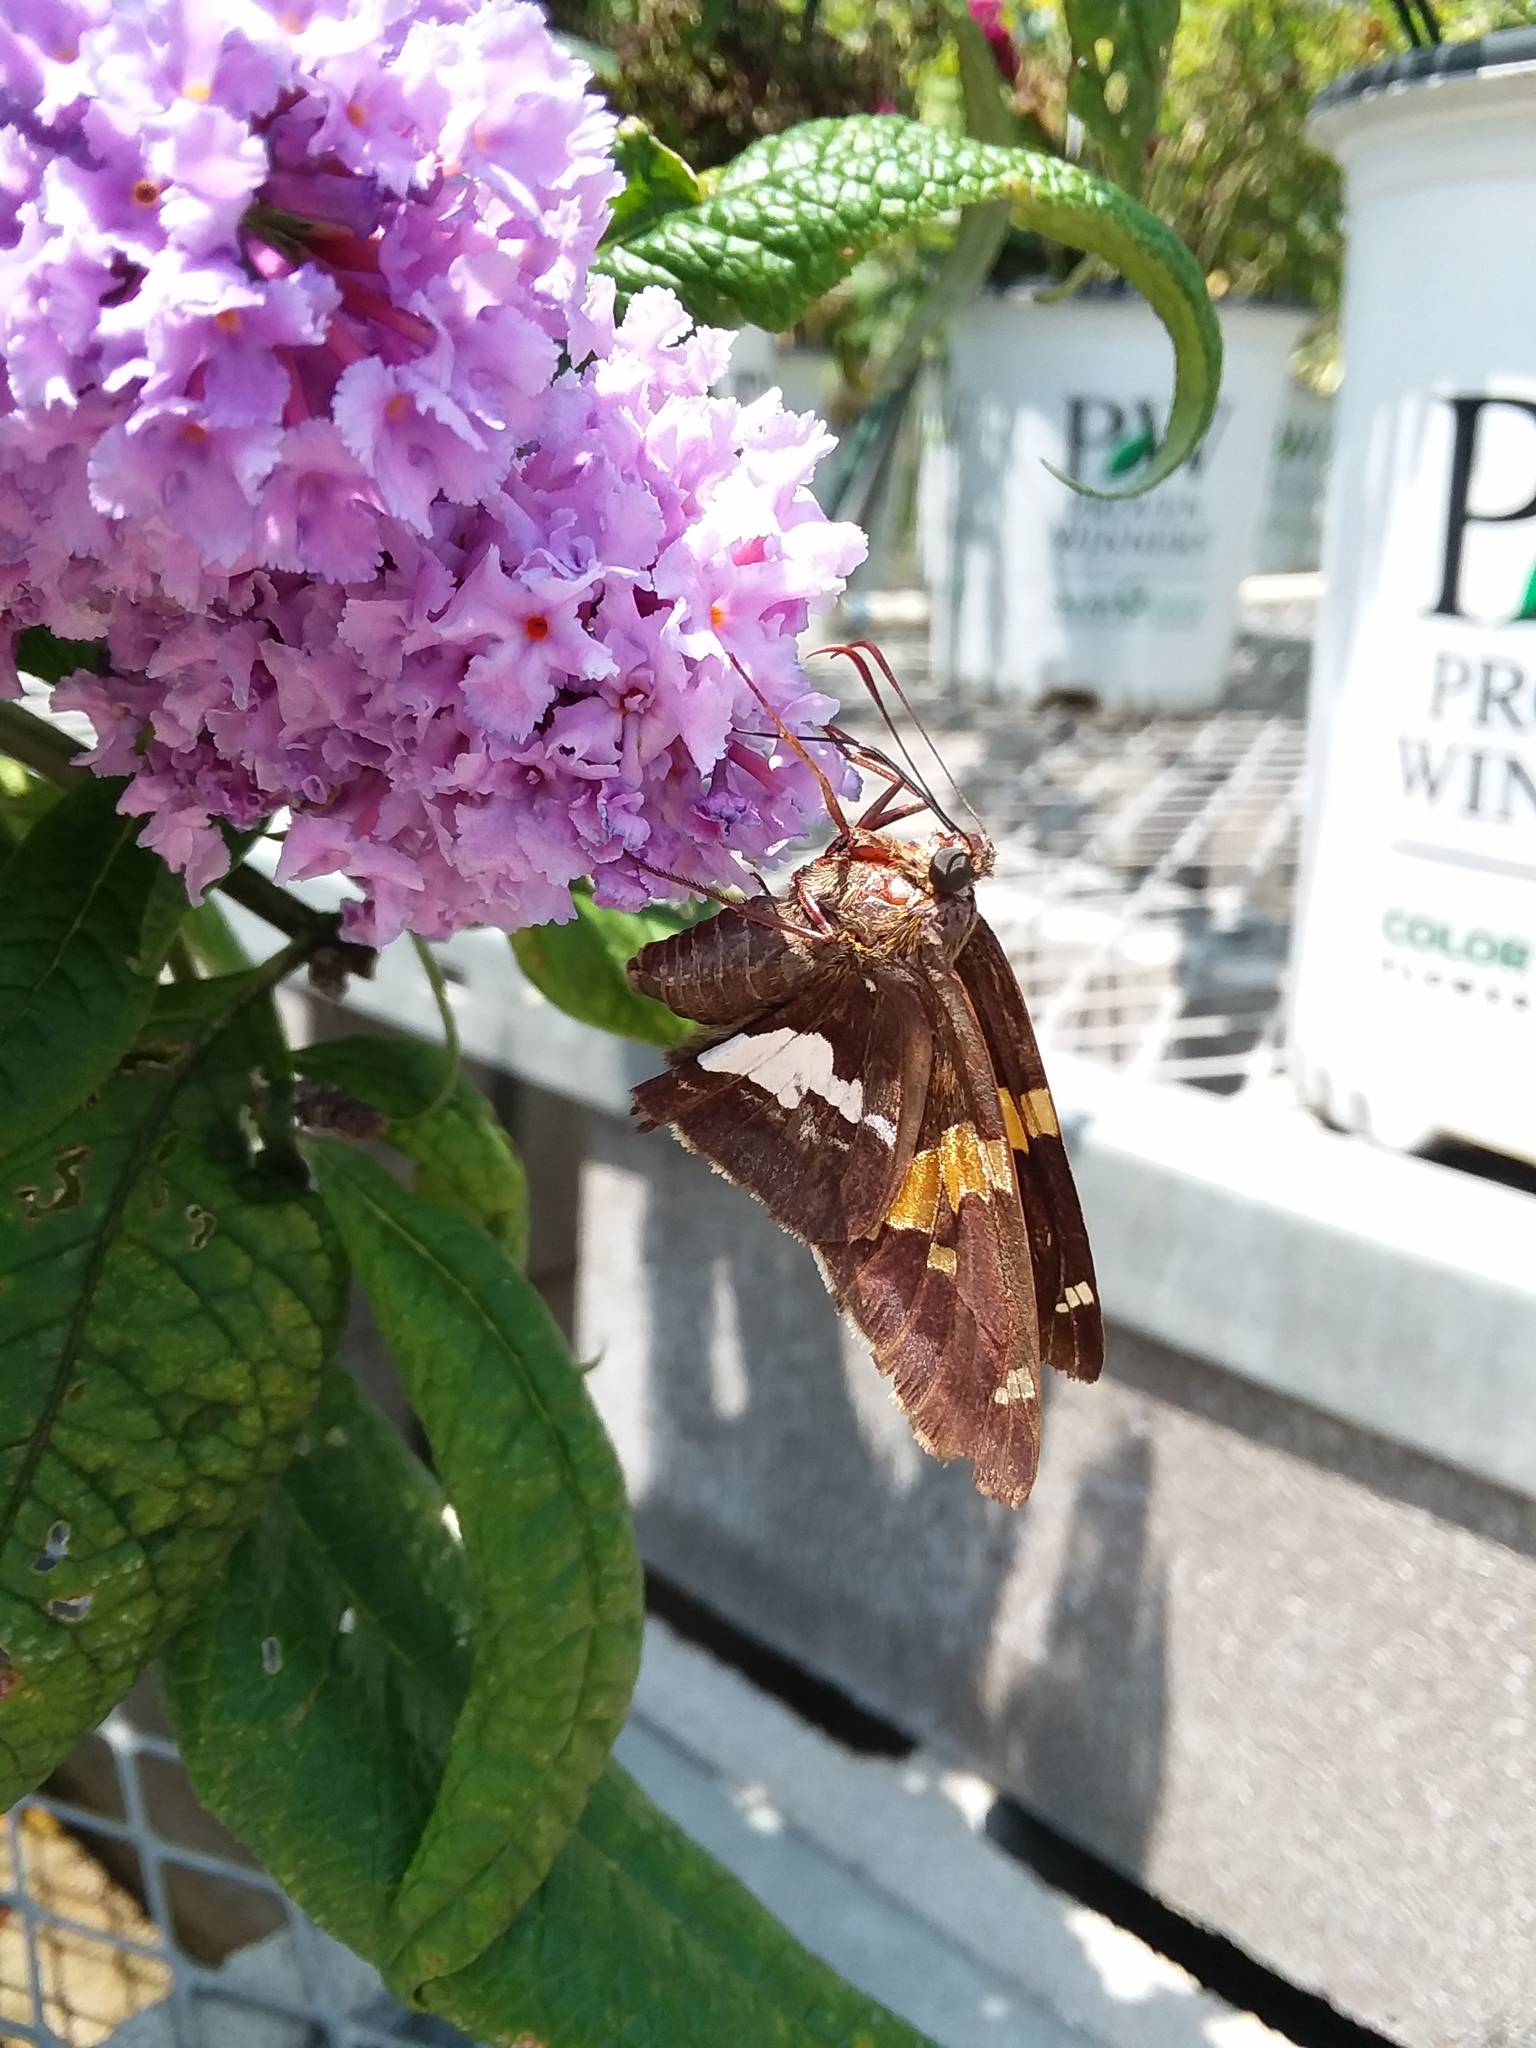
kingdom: Animalia
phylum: Arthropoda
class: Insecta
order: Lepidoptera
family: Hesperiidae
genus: Epargyreus
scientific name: Epargyreus clarus
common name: Silver-spotted skipper
